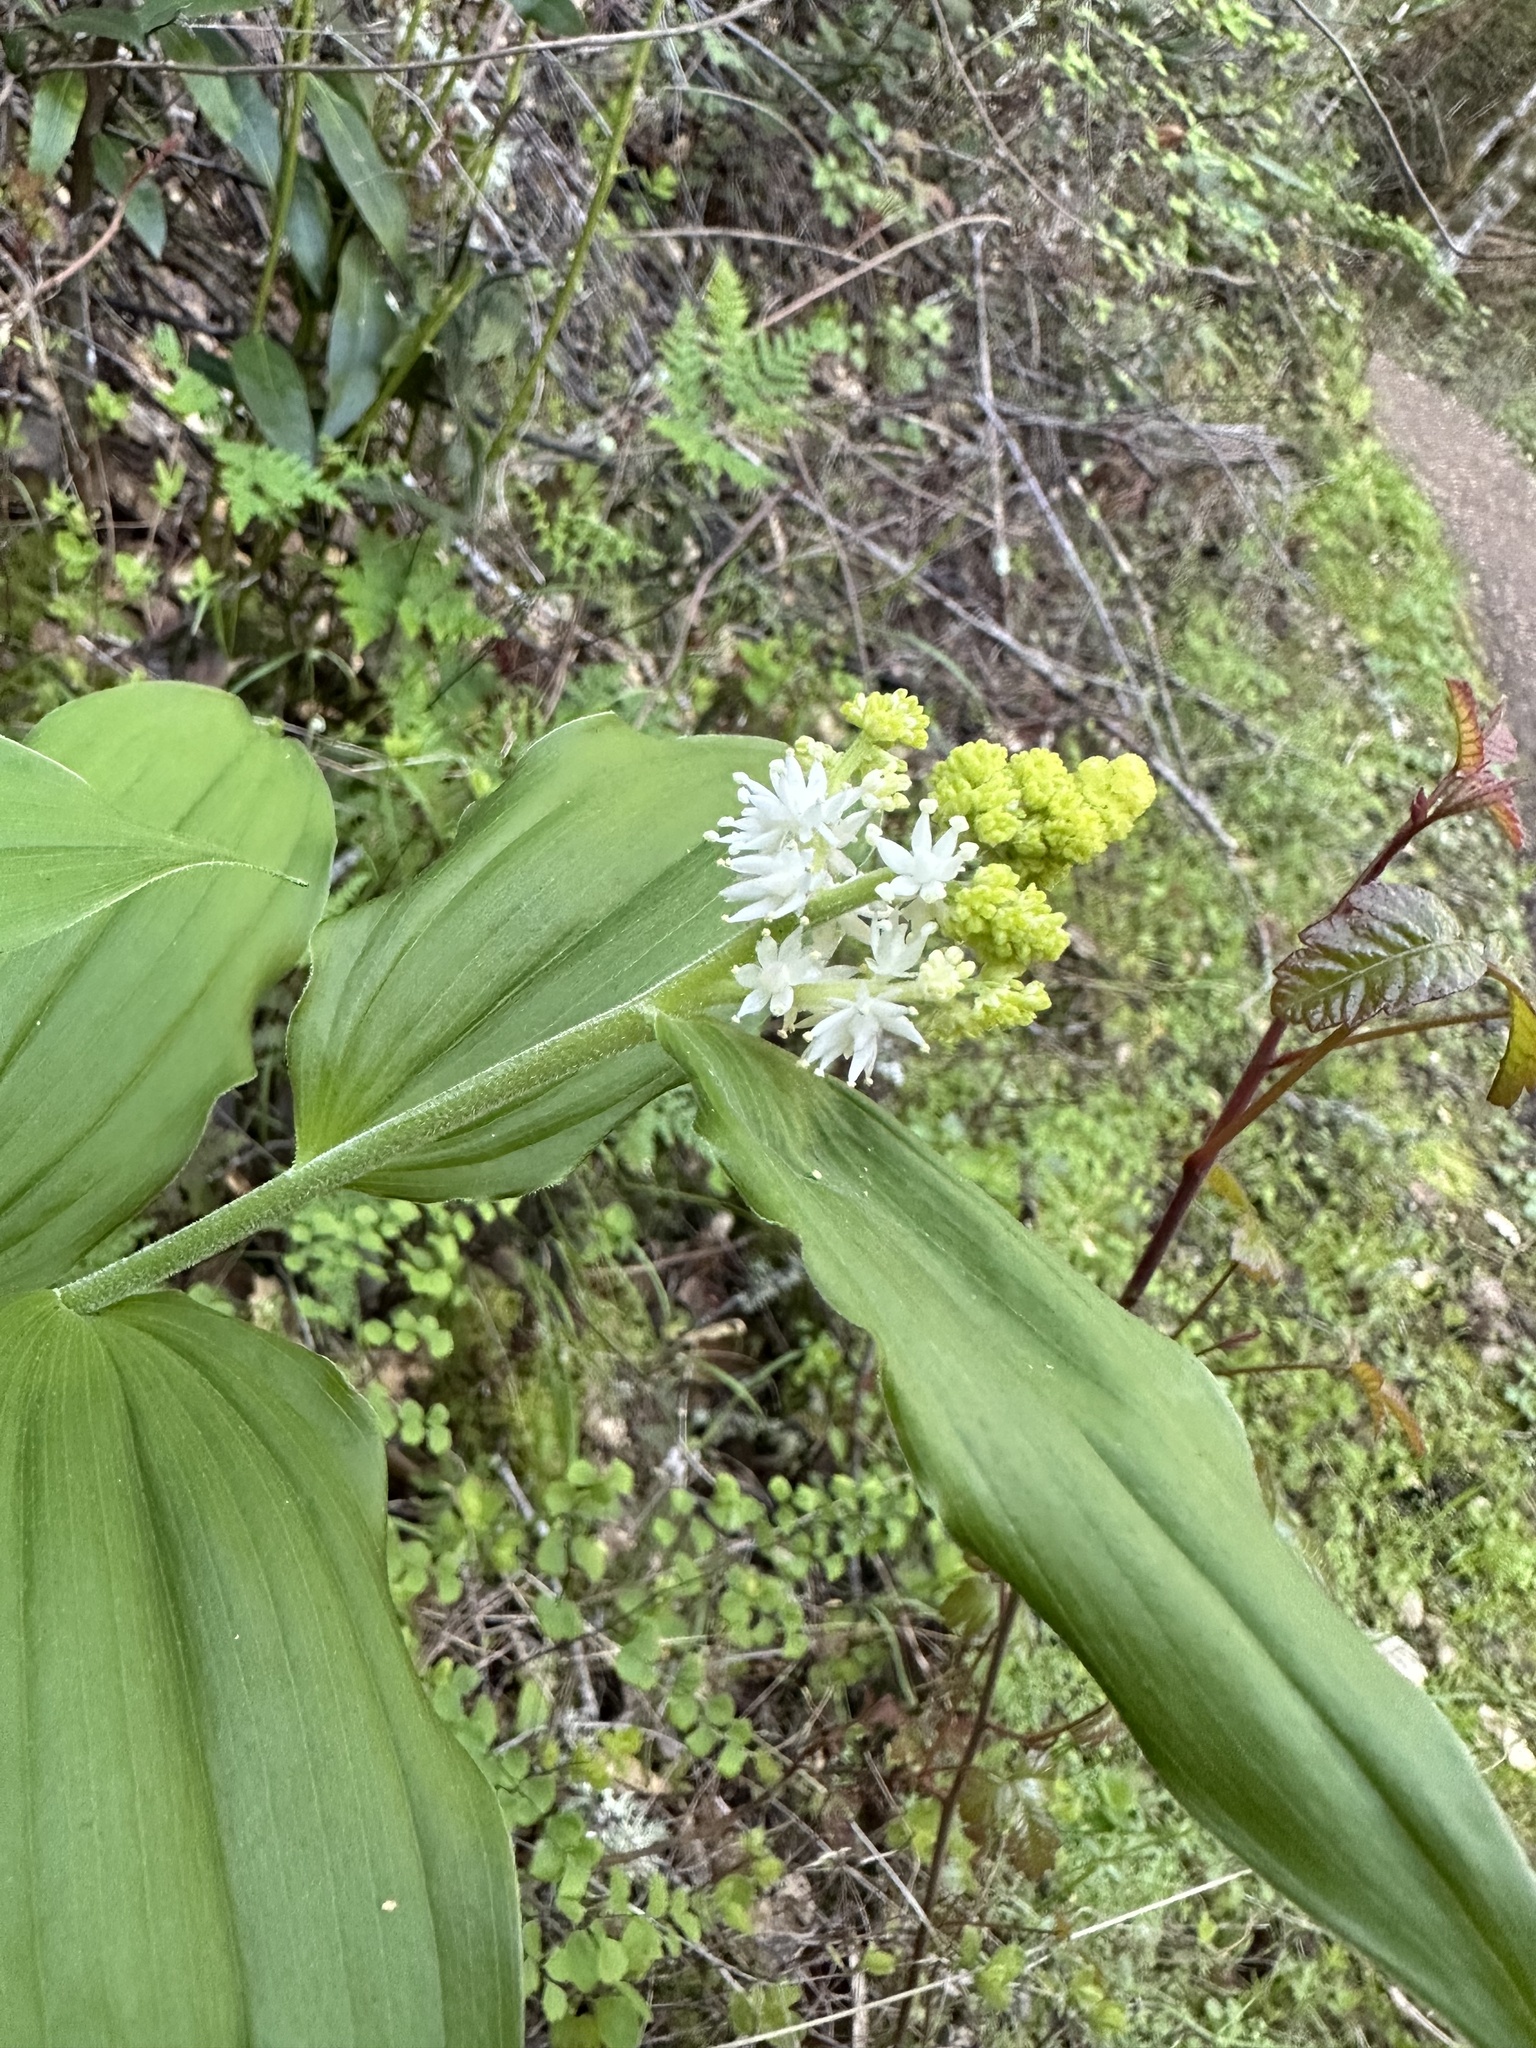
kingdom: Plantae
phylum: Tracheophyta
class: Liliopsida
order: Asparagales
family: Asparagaceae
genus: Maianthemum
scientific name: Maianthemum racemosum
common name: False spikenard
